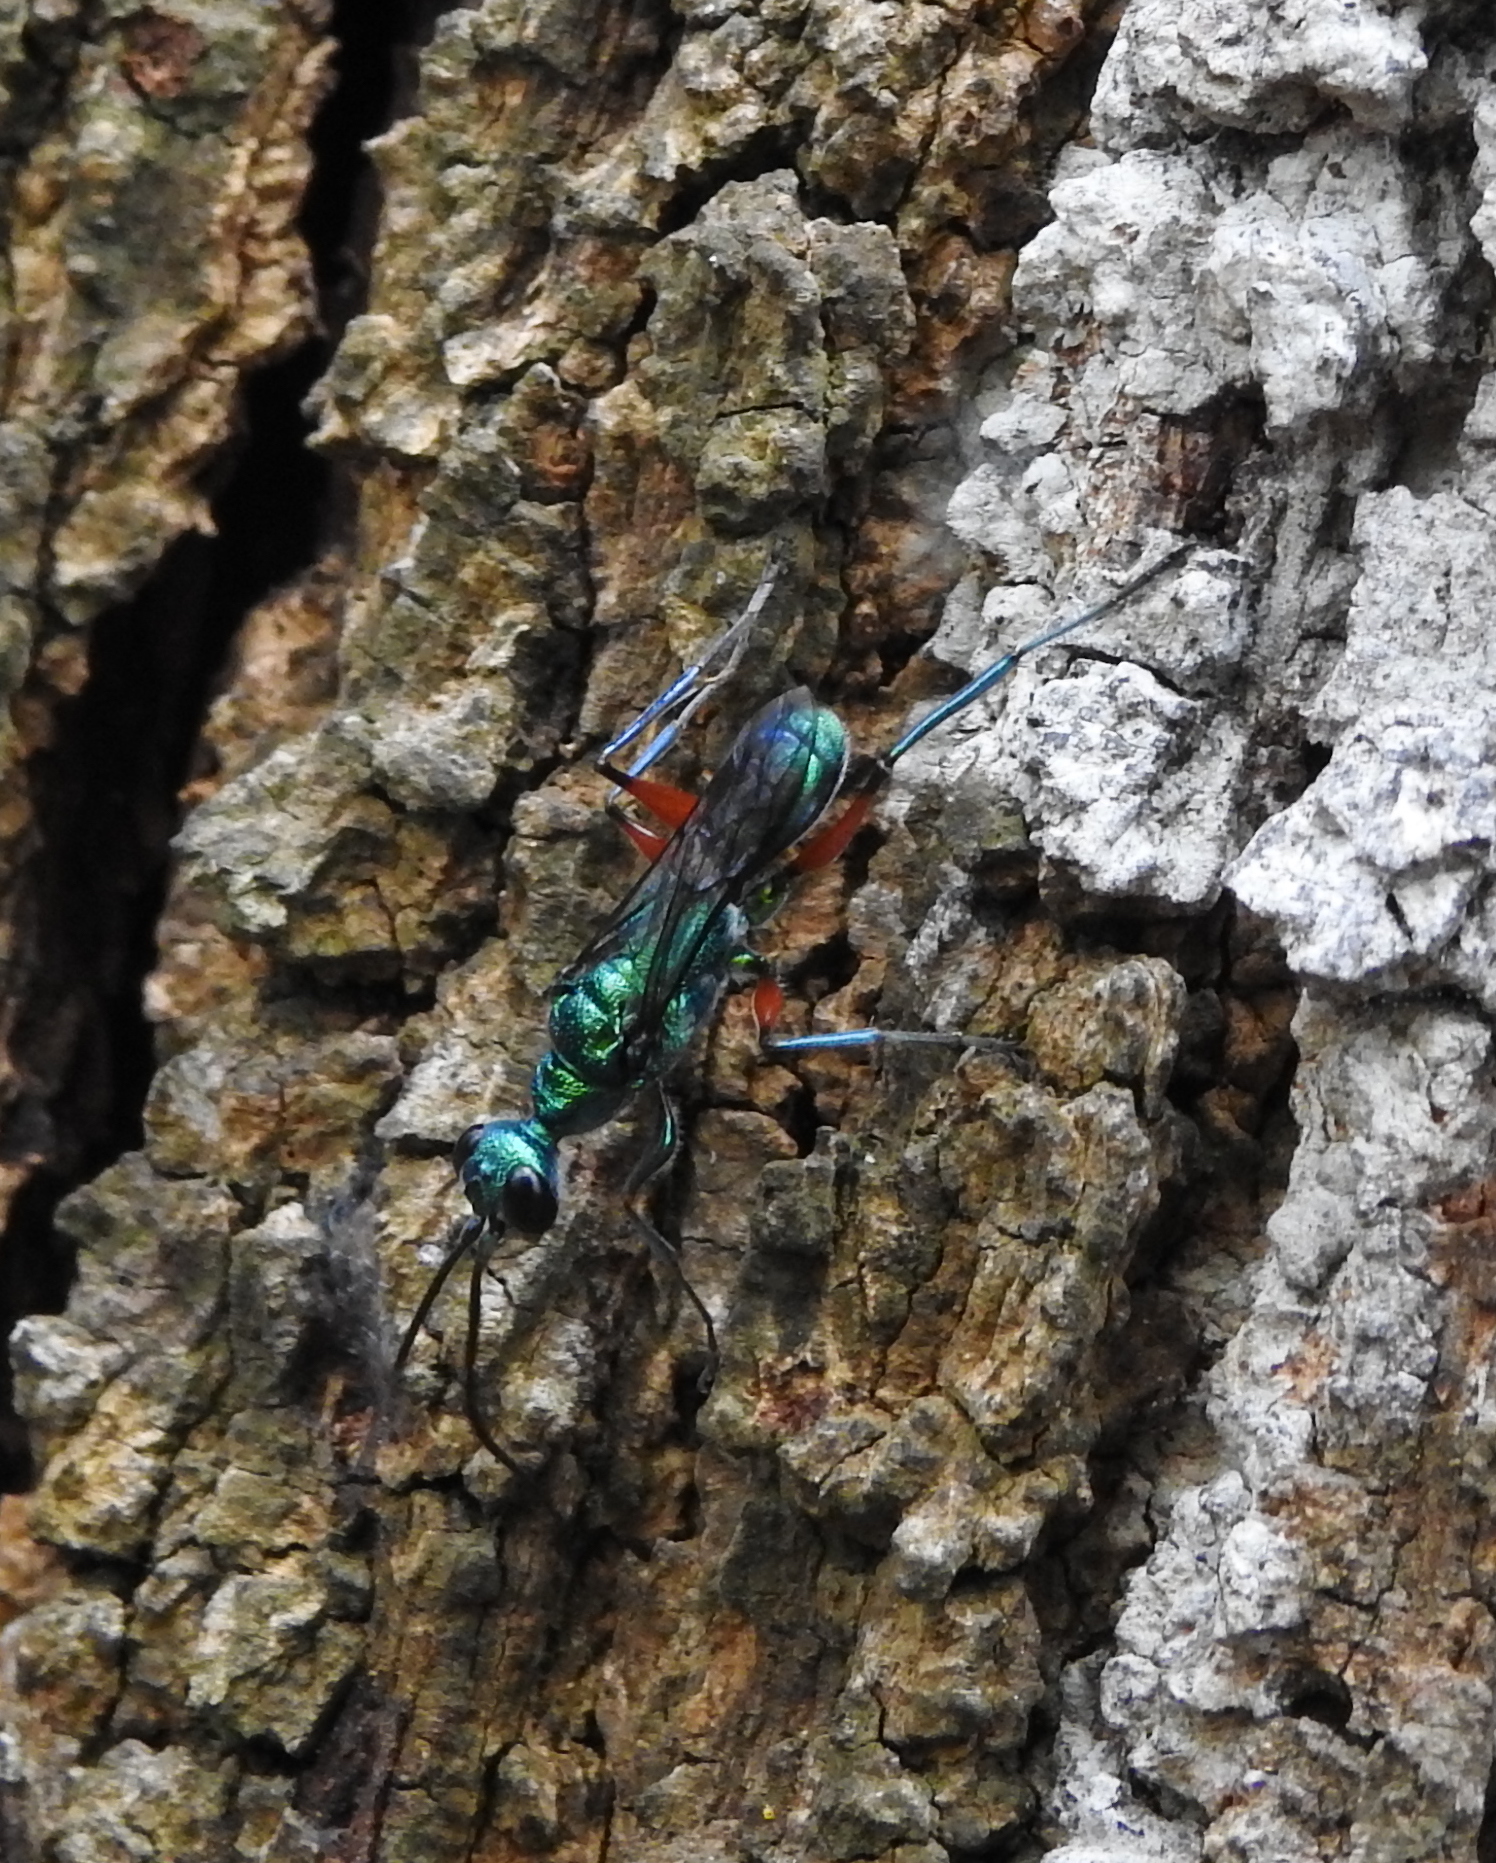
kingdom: Animalia
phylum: Arthropoda
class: Insecta
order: Hymenoptera
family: Ampulicidae
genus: Ampulex
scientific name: Ampulex compressa
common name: Emerald cockroach wasp
